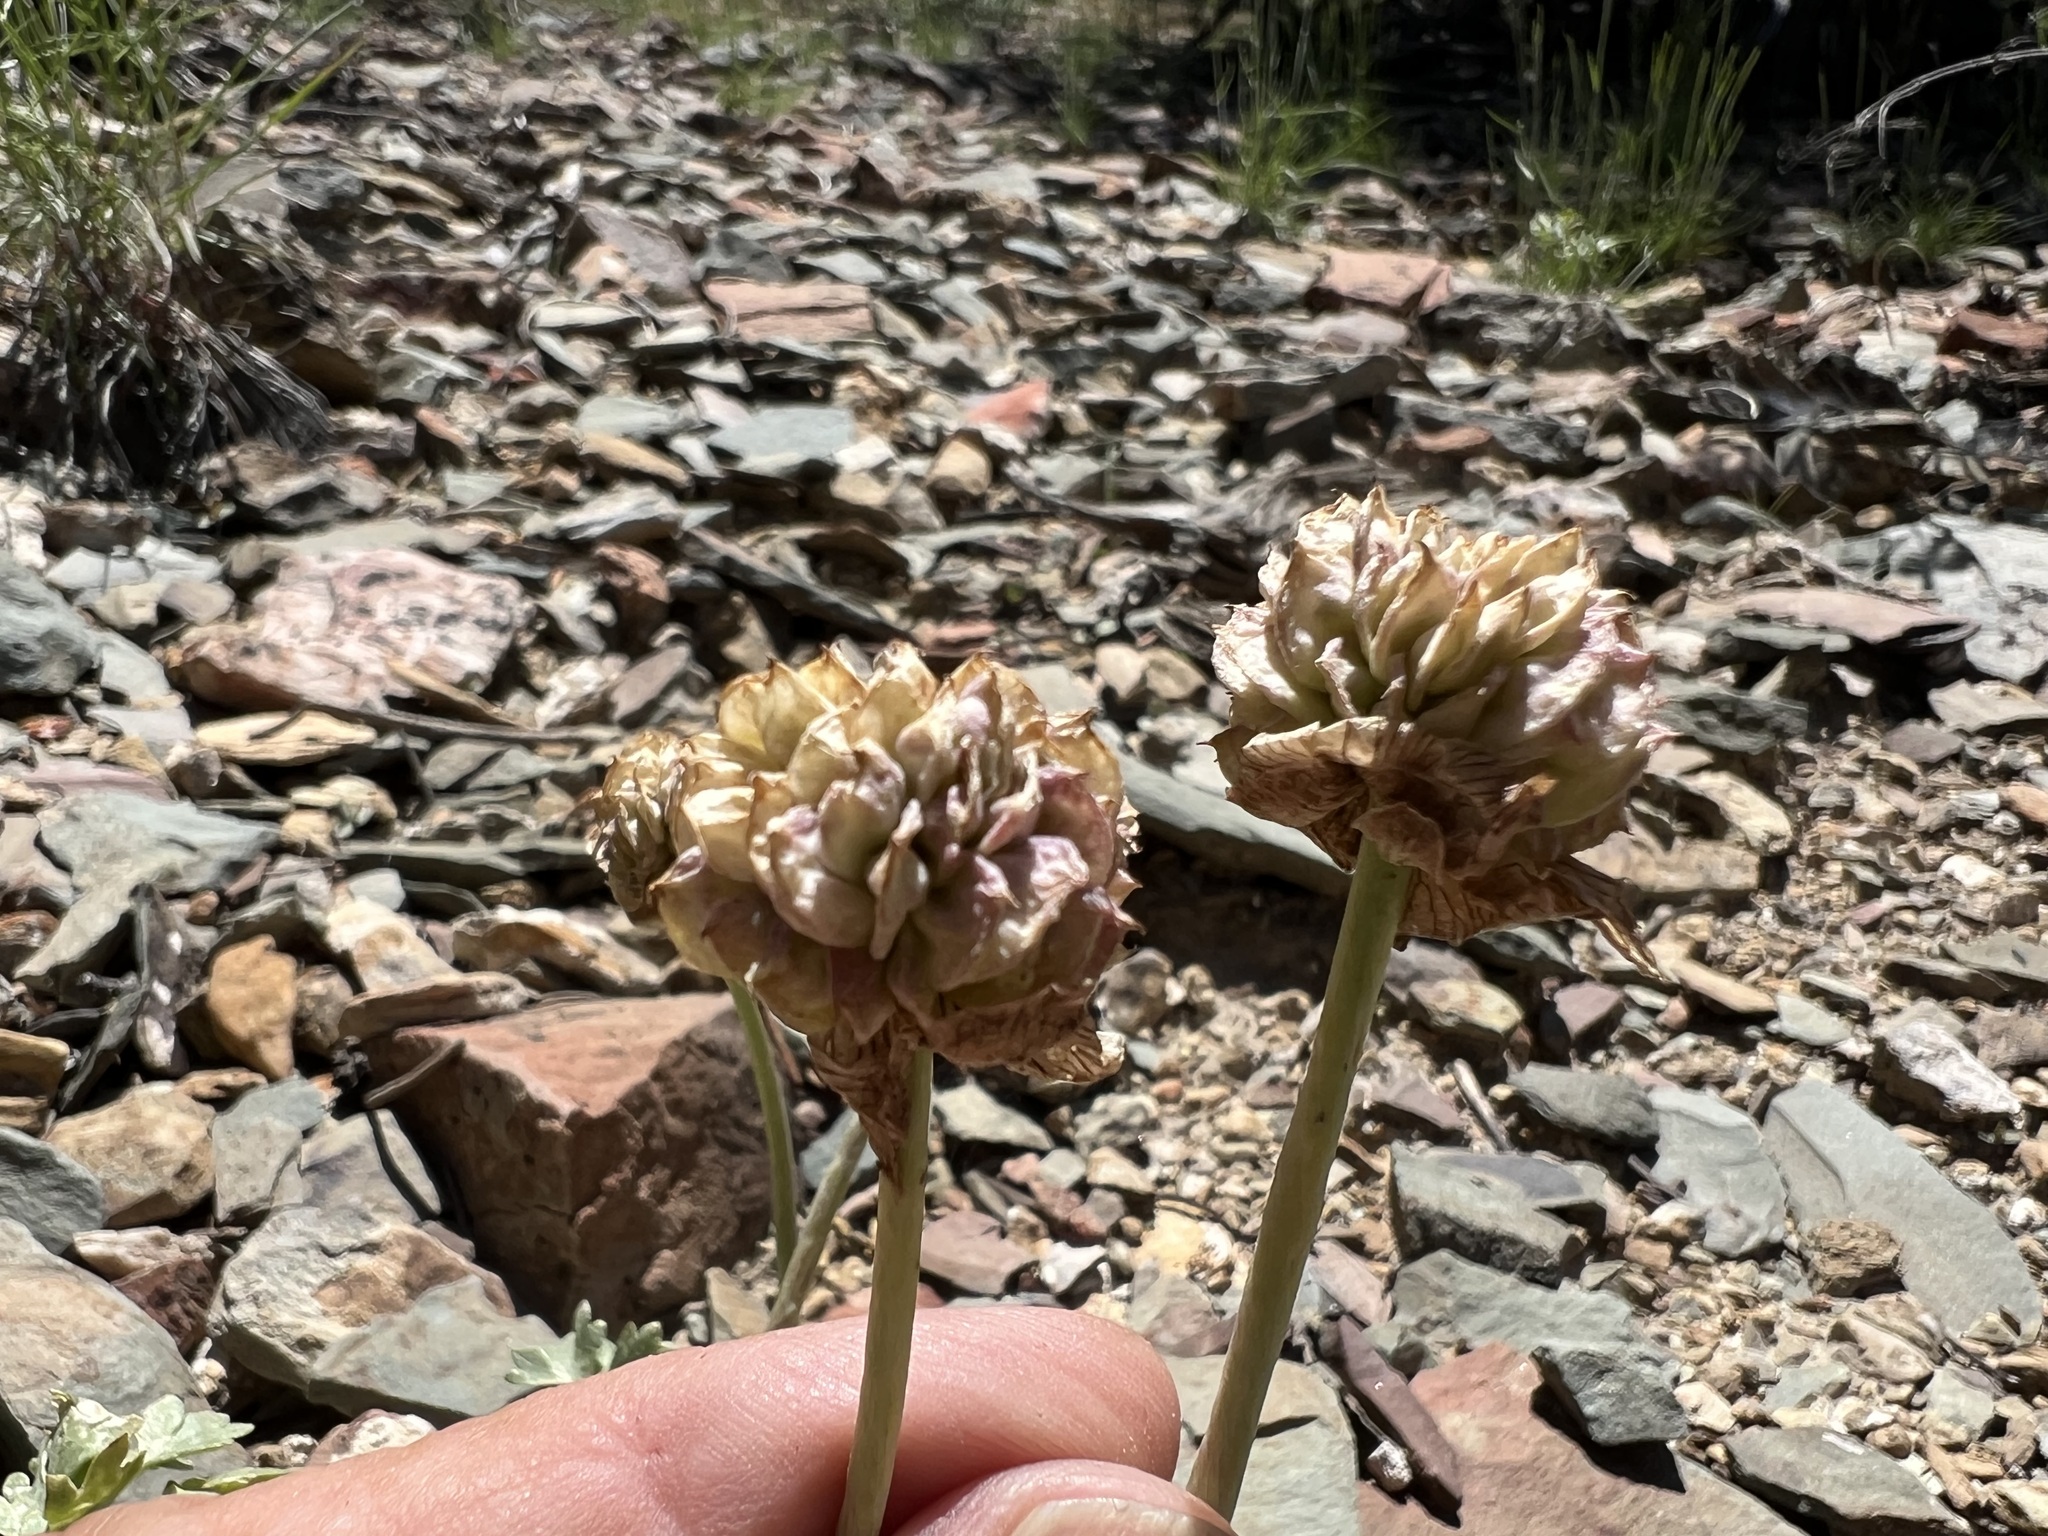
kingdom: Plantae
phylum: Tracheophyta
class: Magnoliopsida
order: Ranunculales
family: Ranunculaceae
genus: Beckwithia
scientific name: Beckwithia andersonii
